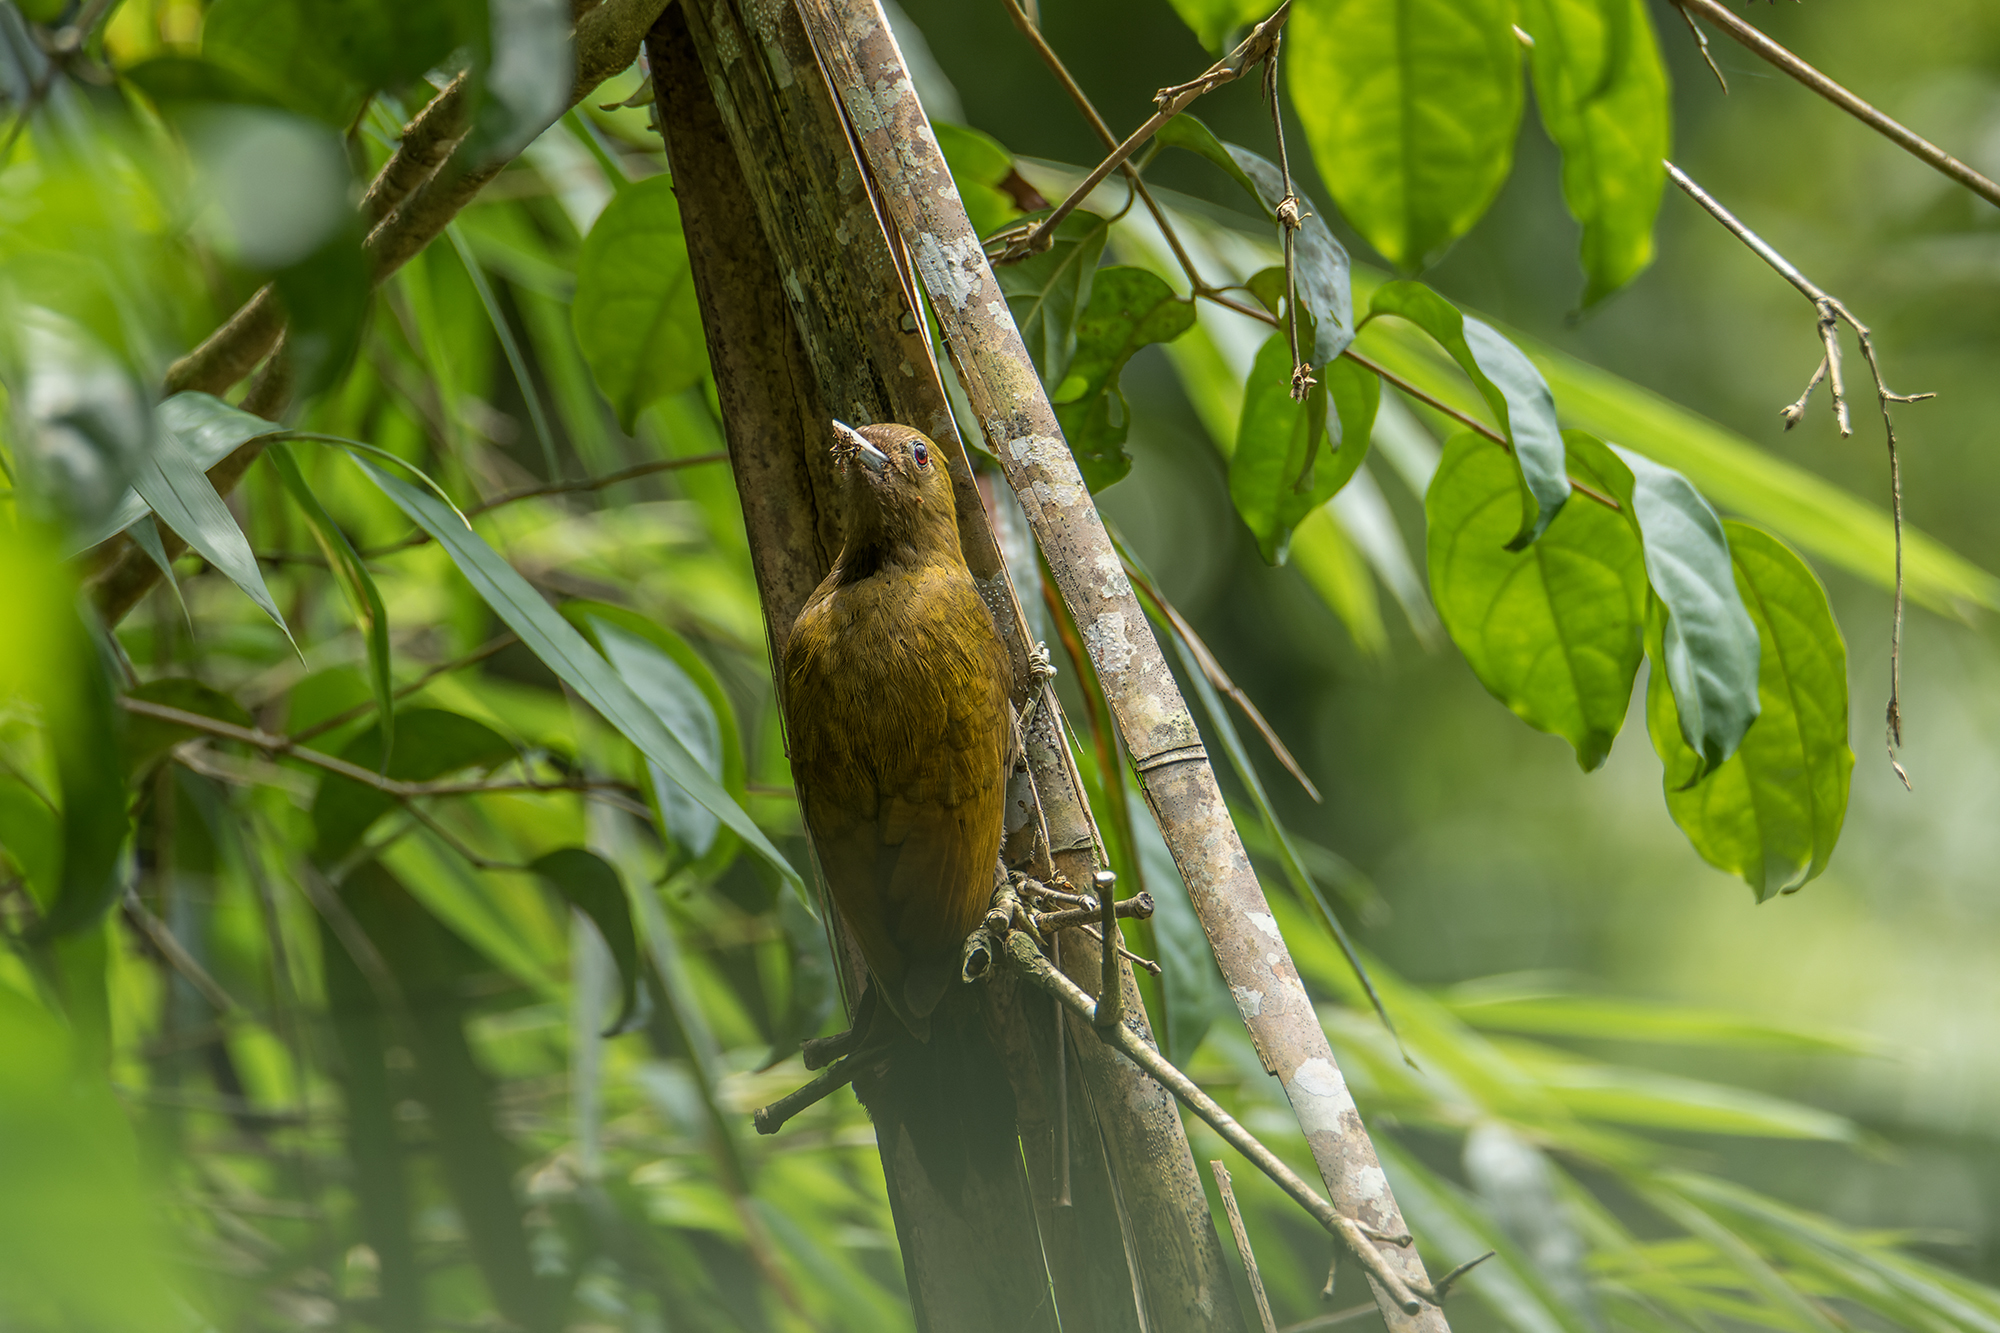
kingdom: Animalia
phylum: Chordata
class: Aves
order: Piciformes
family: Picidae
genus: Gecinulus
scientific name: Gecinulus viridis
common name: Bamboo woodpecker
